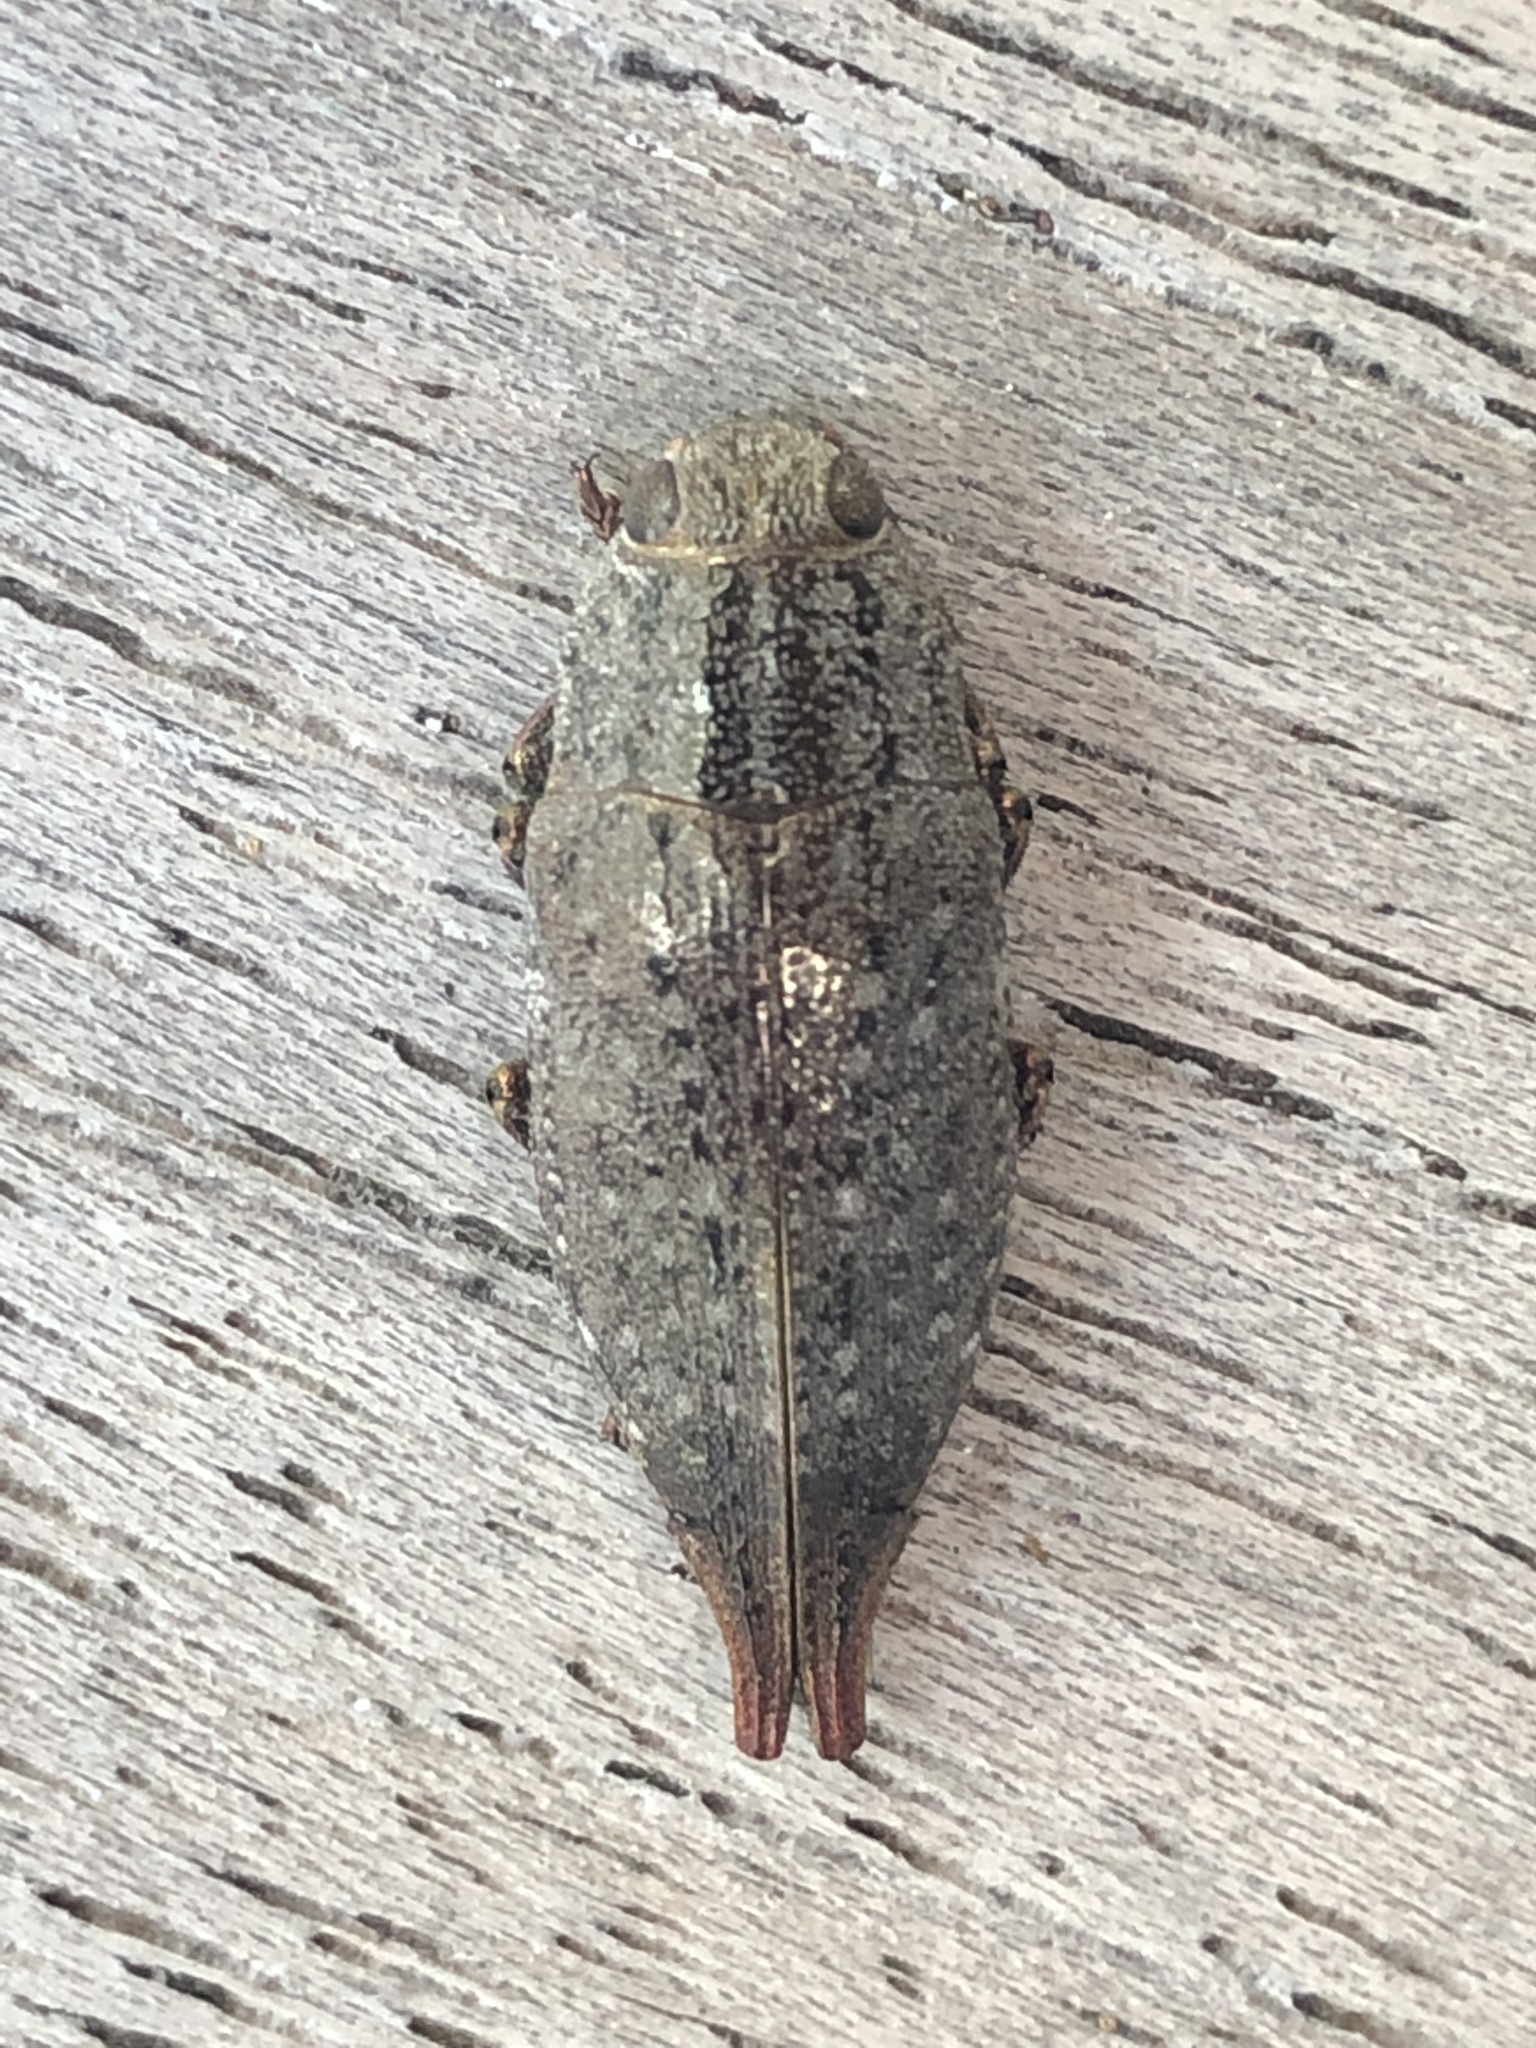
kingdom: Animalia
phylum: Arthropoda
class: Insecta
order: Coleoptera
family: Buprestidae
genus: Dicerca
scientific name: Dicerca tenebrica
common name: Flat-headed poplar borer
